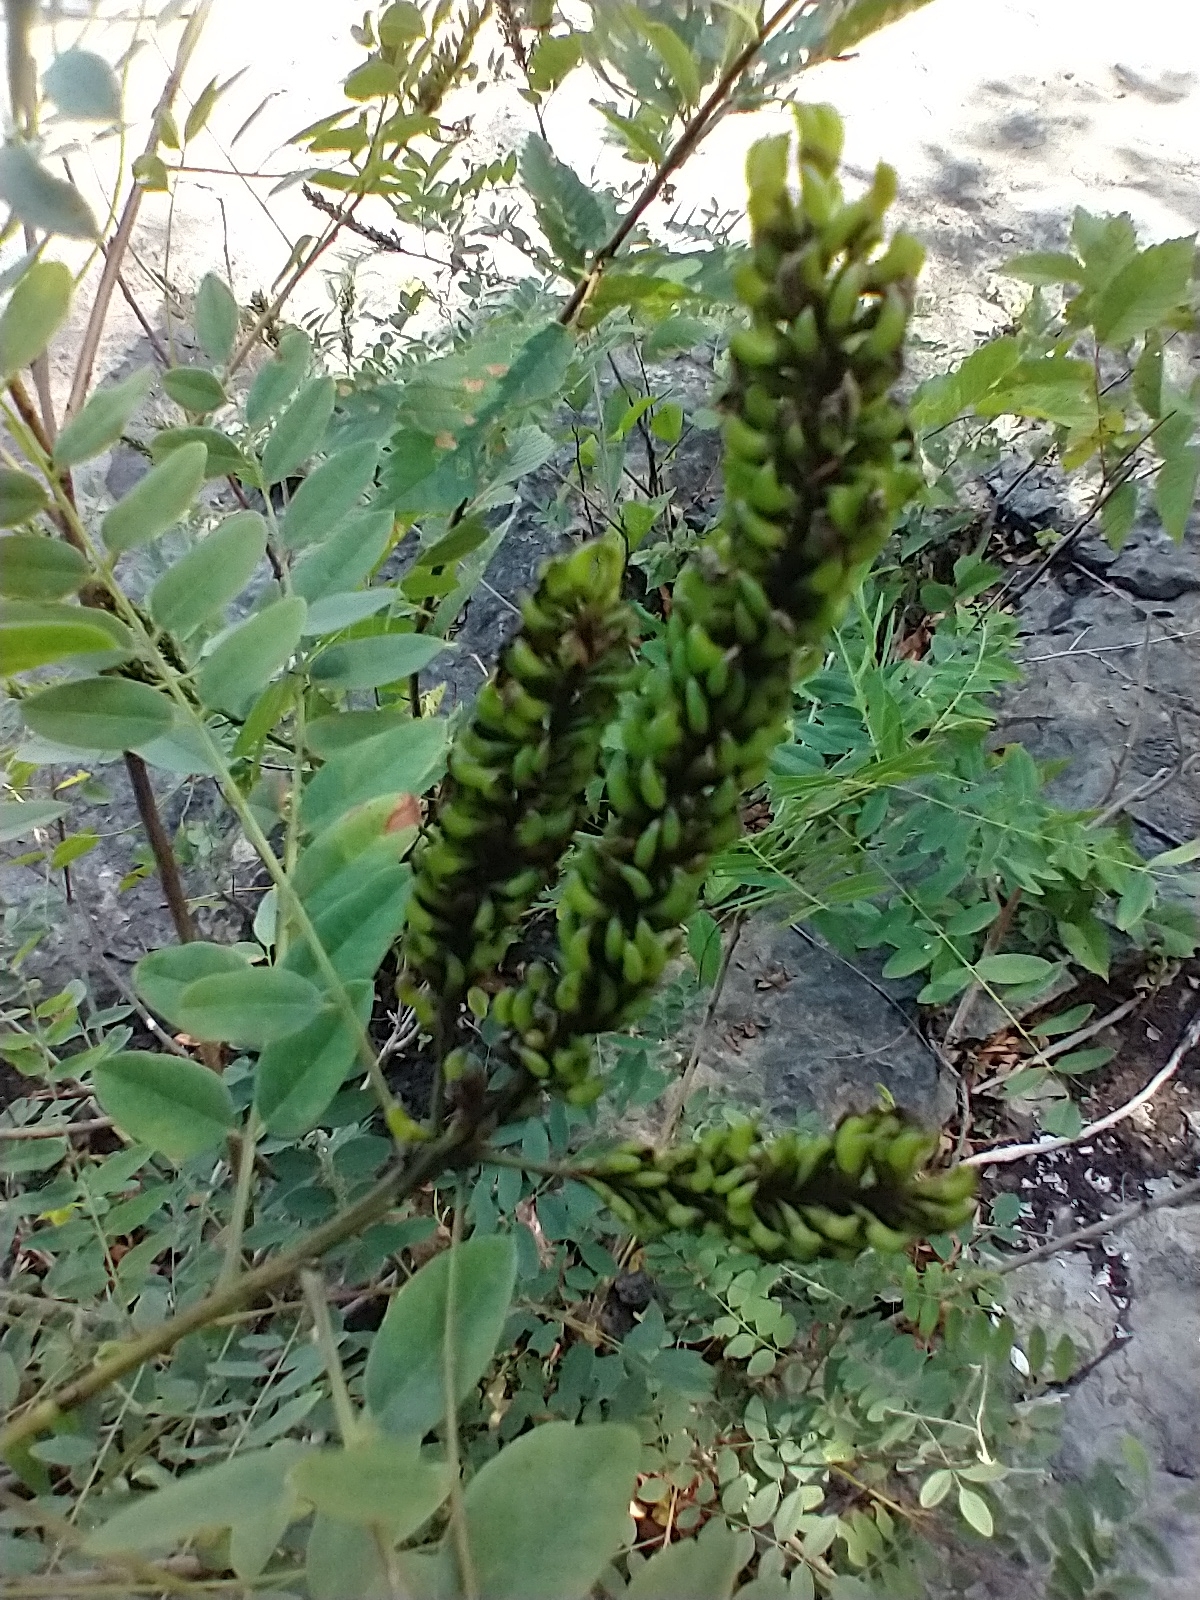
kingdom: Plantae
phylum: Tracheophyta
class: Magnoliopsida
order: Fabales
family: Fabaceae
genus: Amorpha
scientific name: Amorpha fruticosa
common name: False indigo
